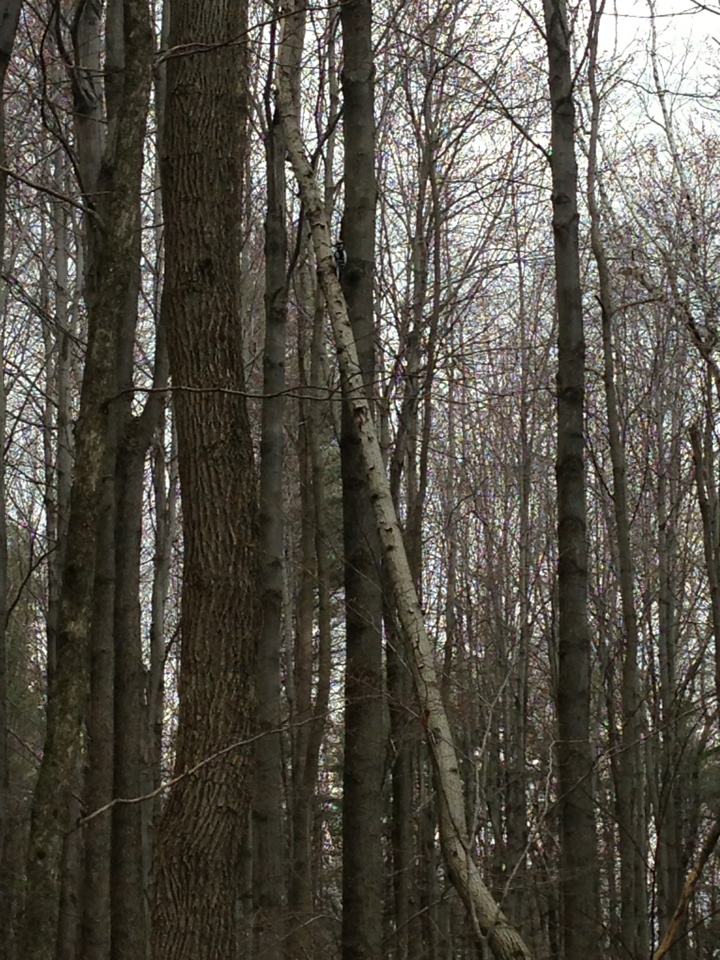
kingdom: Animalia
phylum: Chordata
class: Aves
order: Piciformes
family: Picidae
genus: Leuconotopicus
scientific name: Leuconotopicus villosus
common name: Hairy woodpecker
